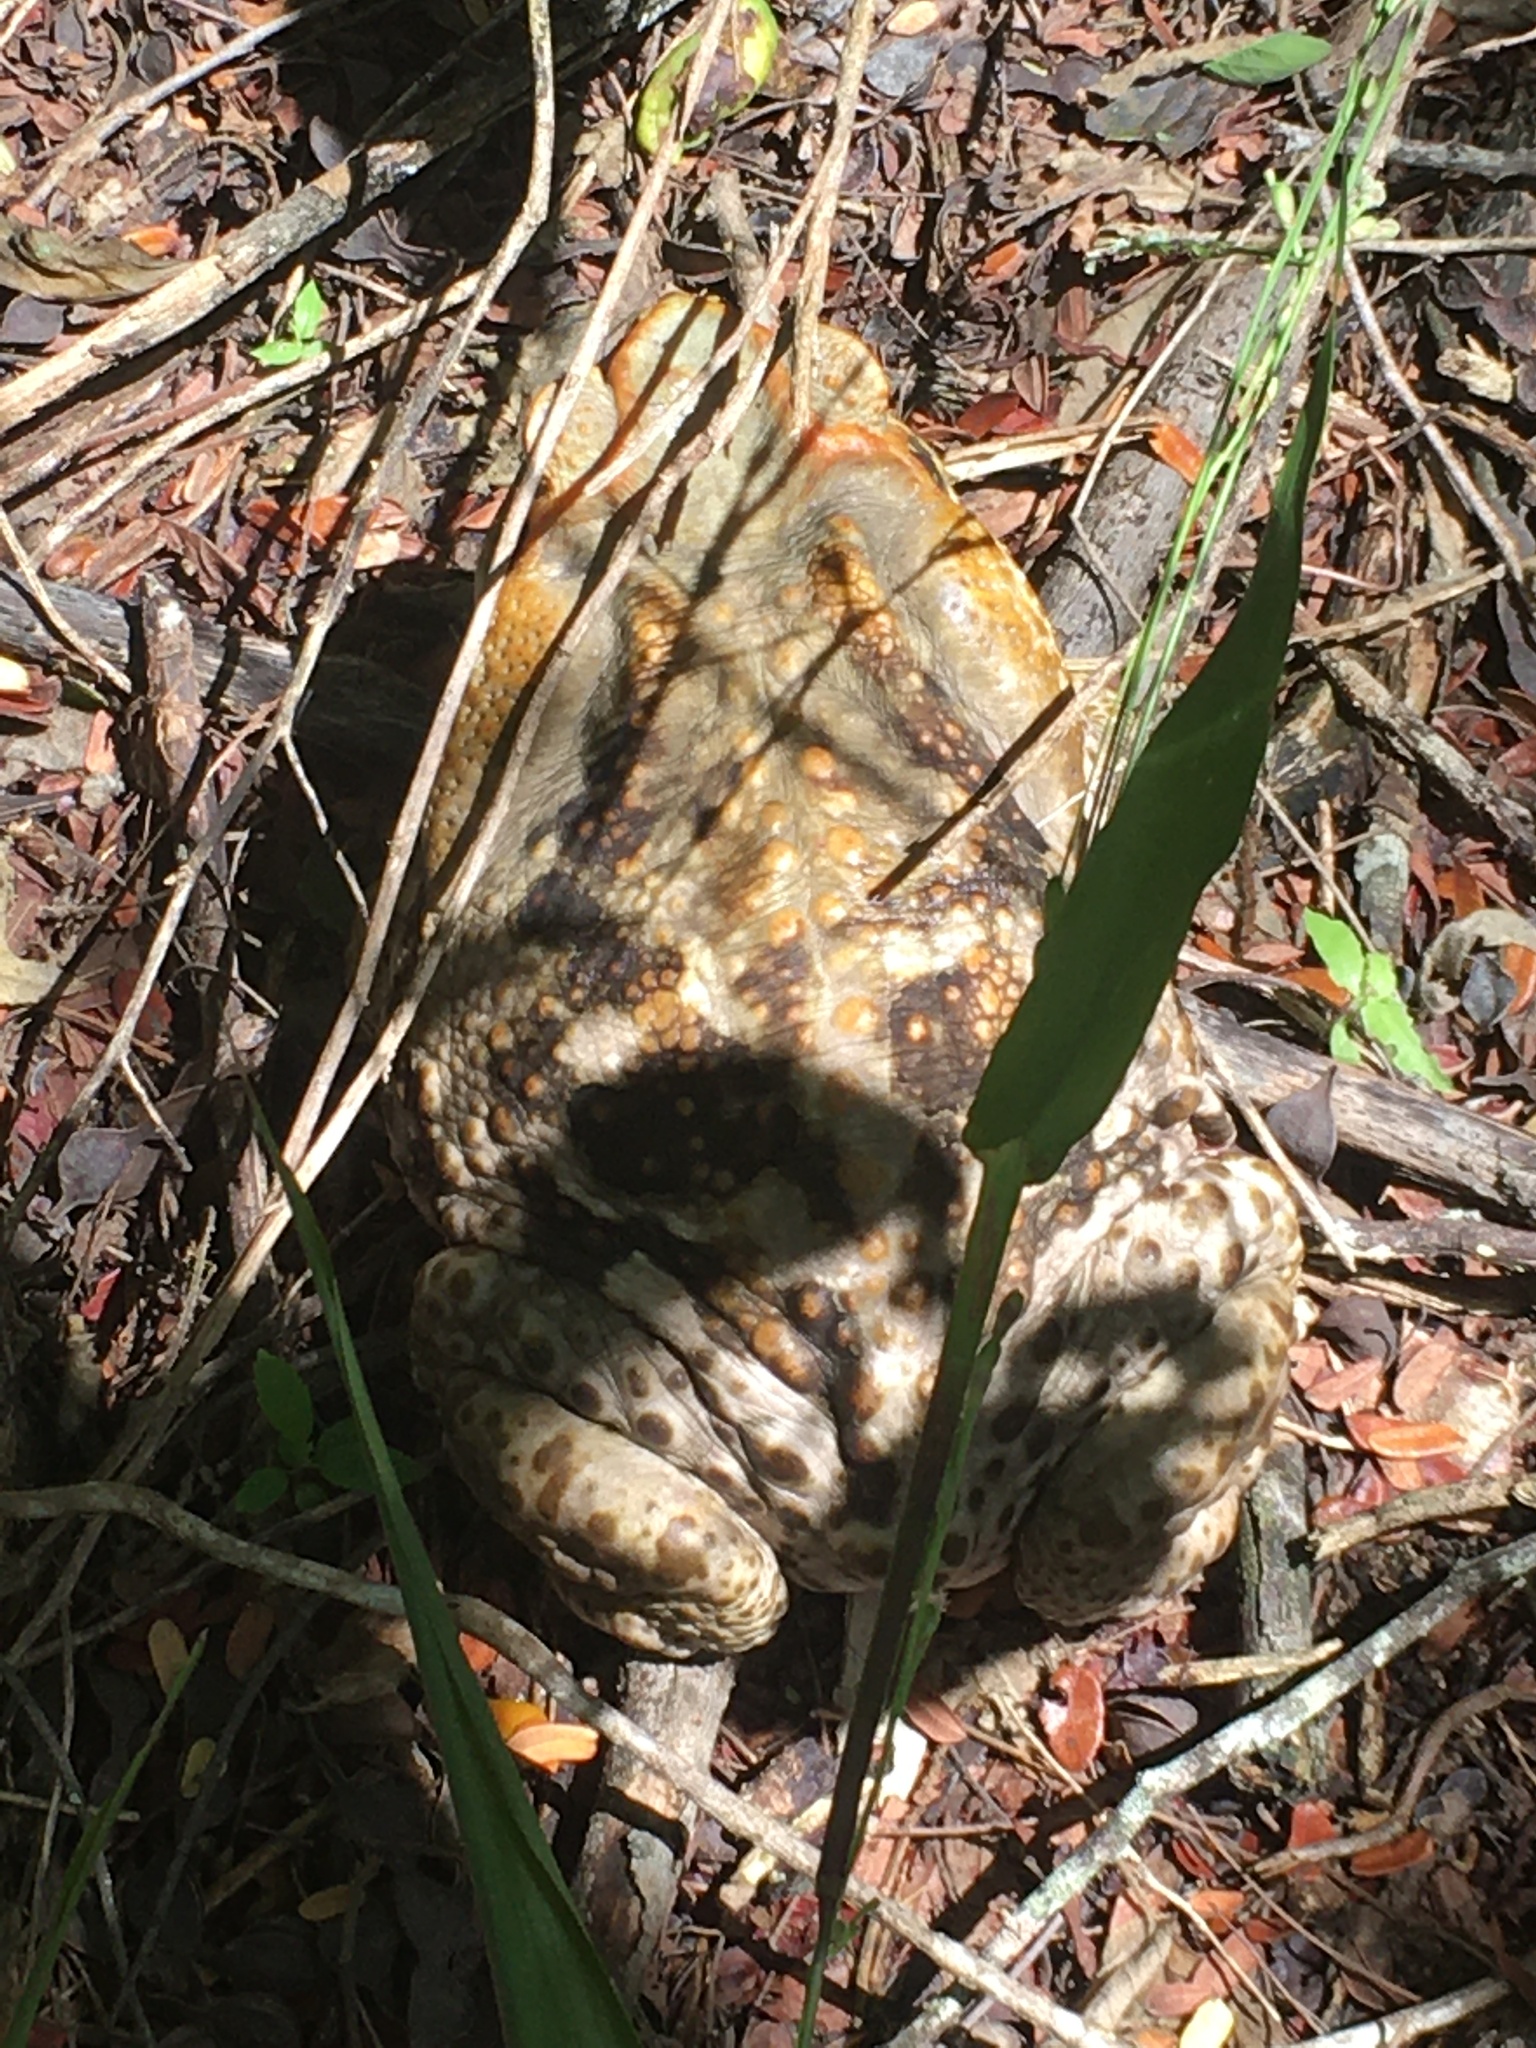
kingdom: Animalia
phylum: Chordata
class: Amphibia
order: Anura
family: Bufonidae
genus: Rhinella
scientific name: Rhinella diptycha
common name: Cope's toad
